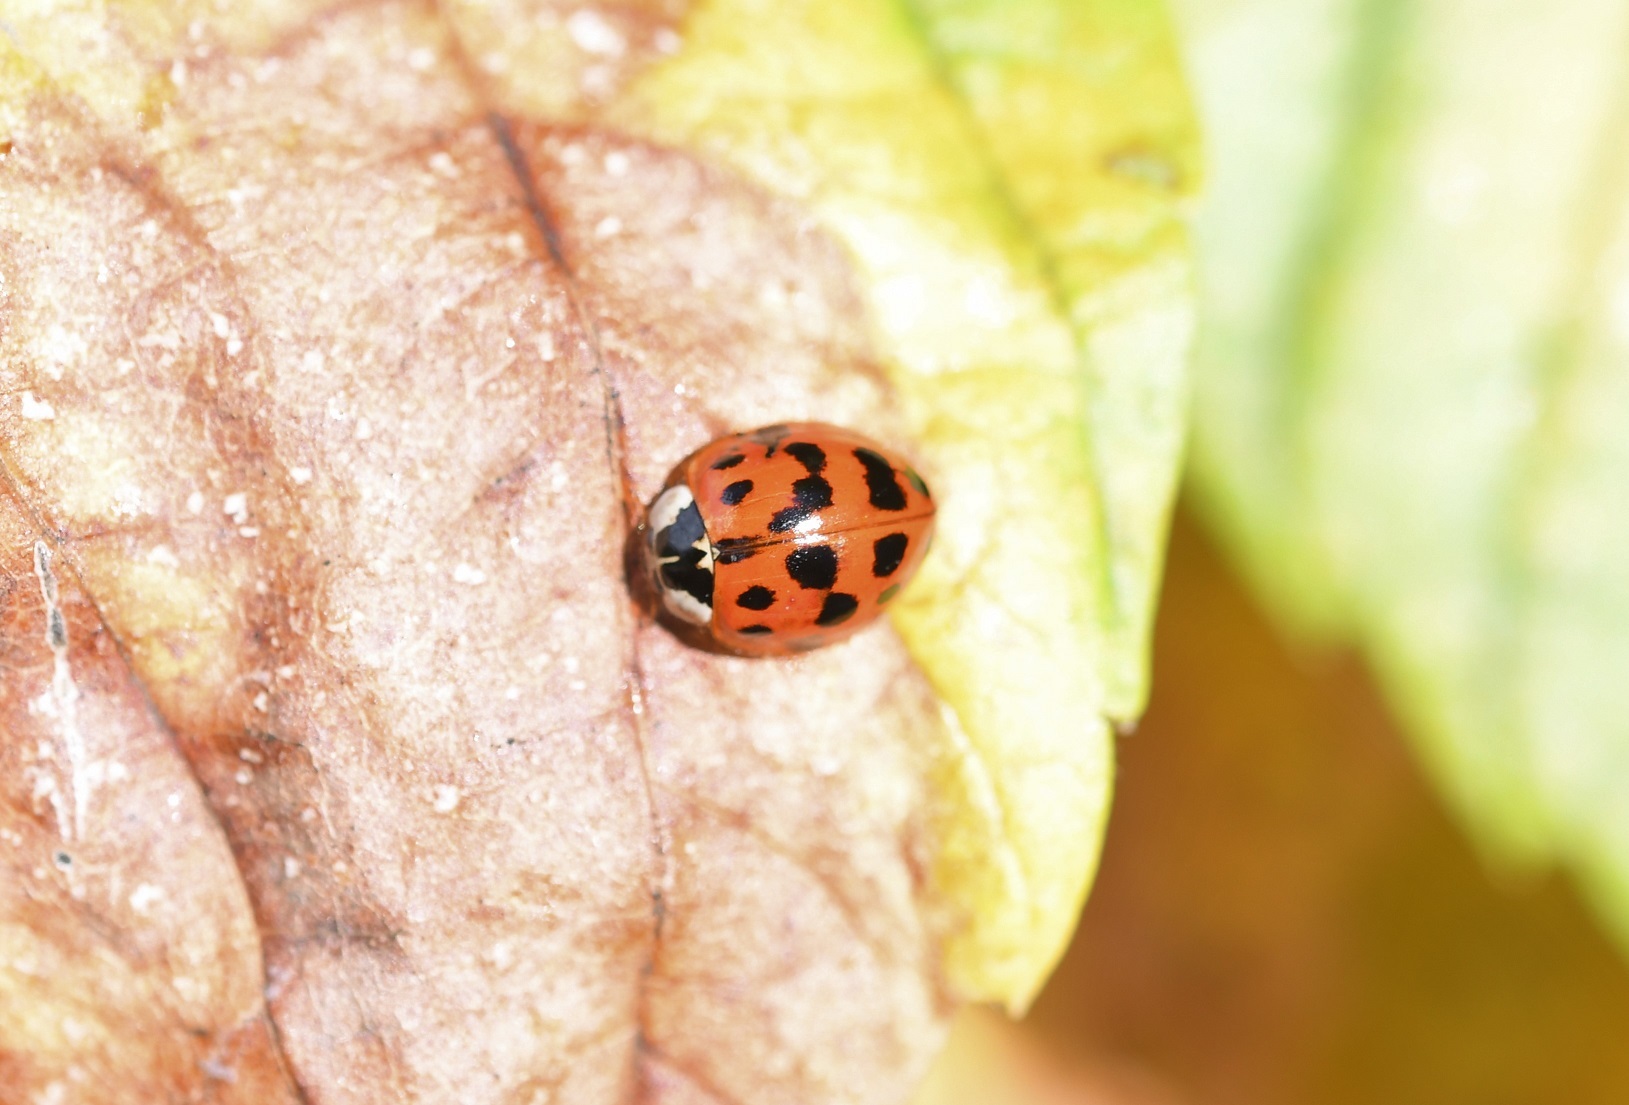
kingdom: Animalia
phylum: Arthropoda
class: Insecta
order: Coleoptera
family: Coccinellidae
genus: Harmonia
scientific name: Harmonia axyridis
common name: Harlequin ladybird
